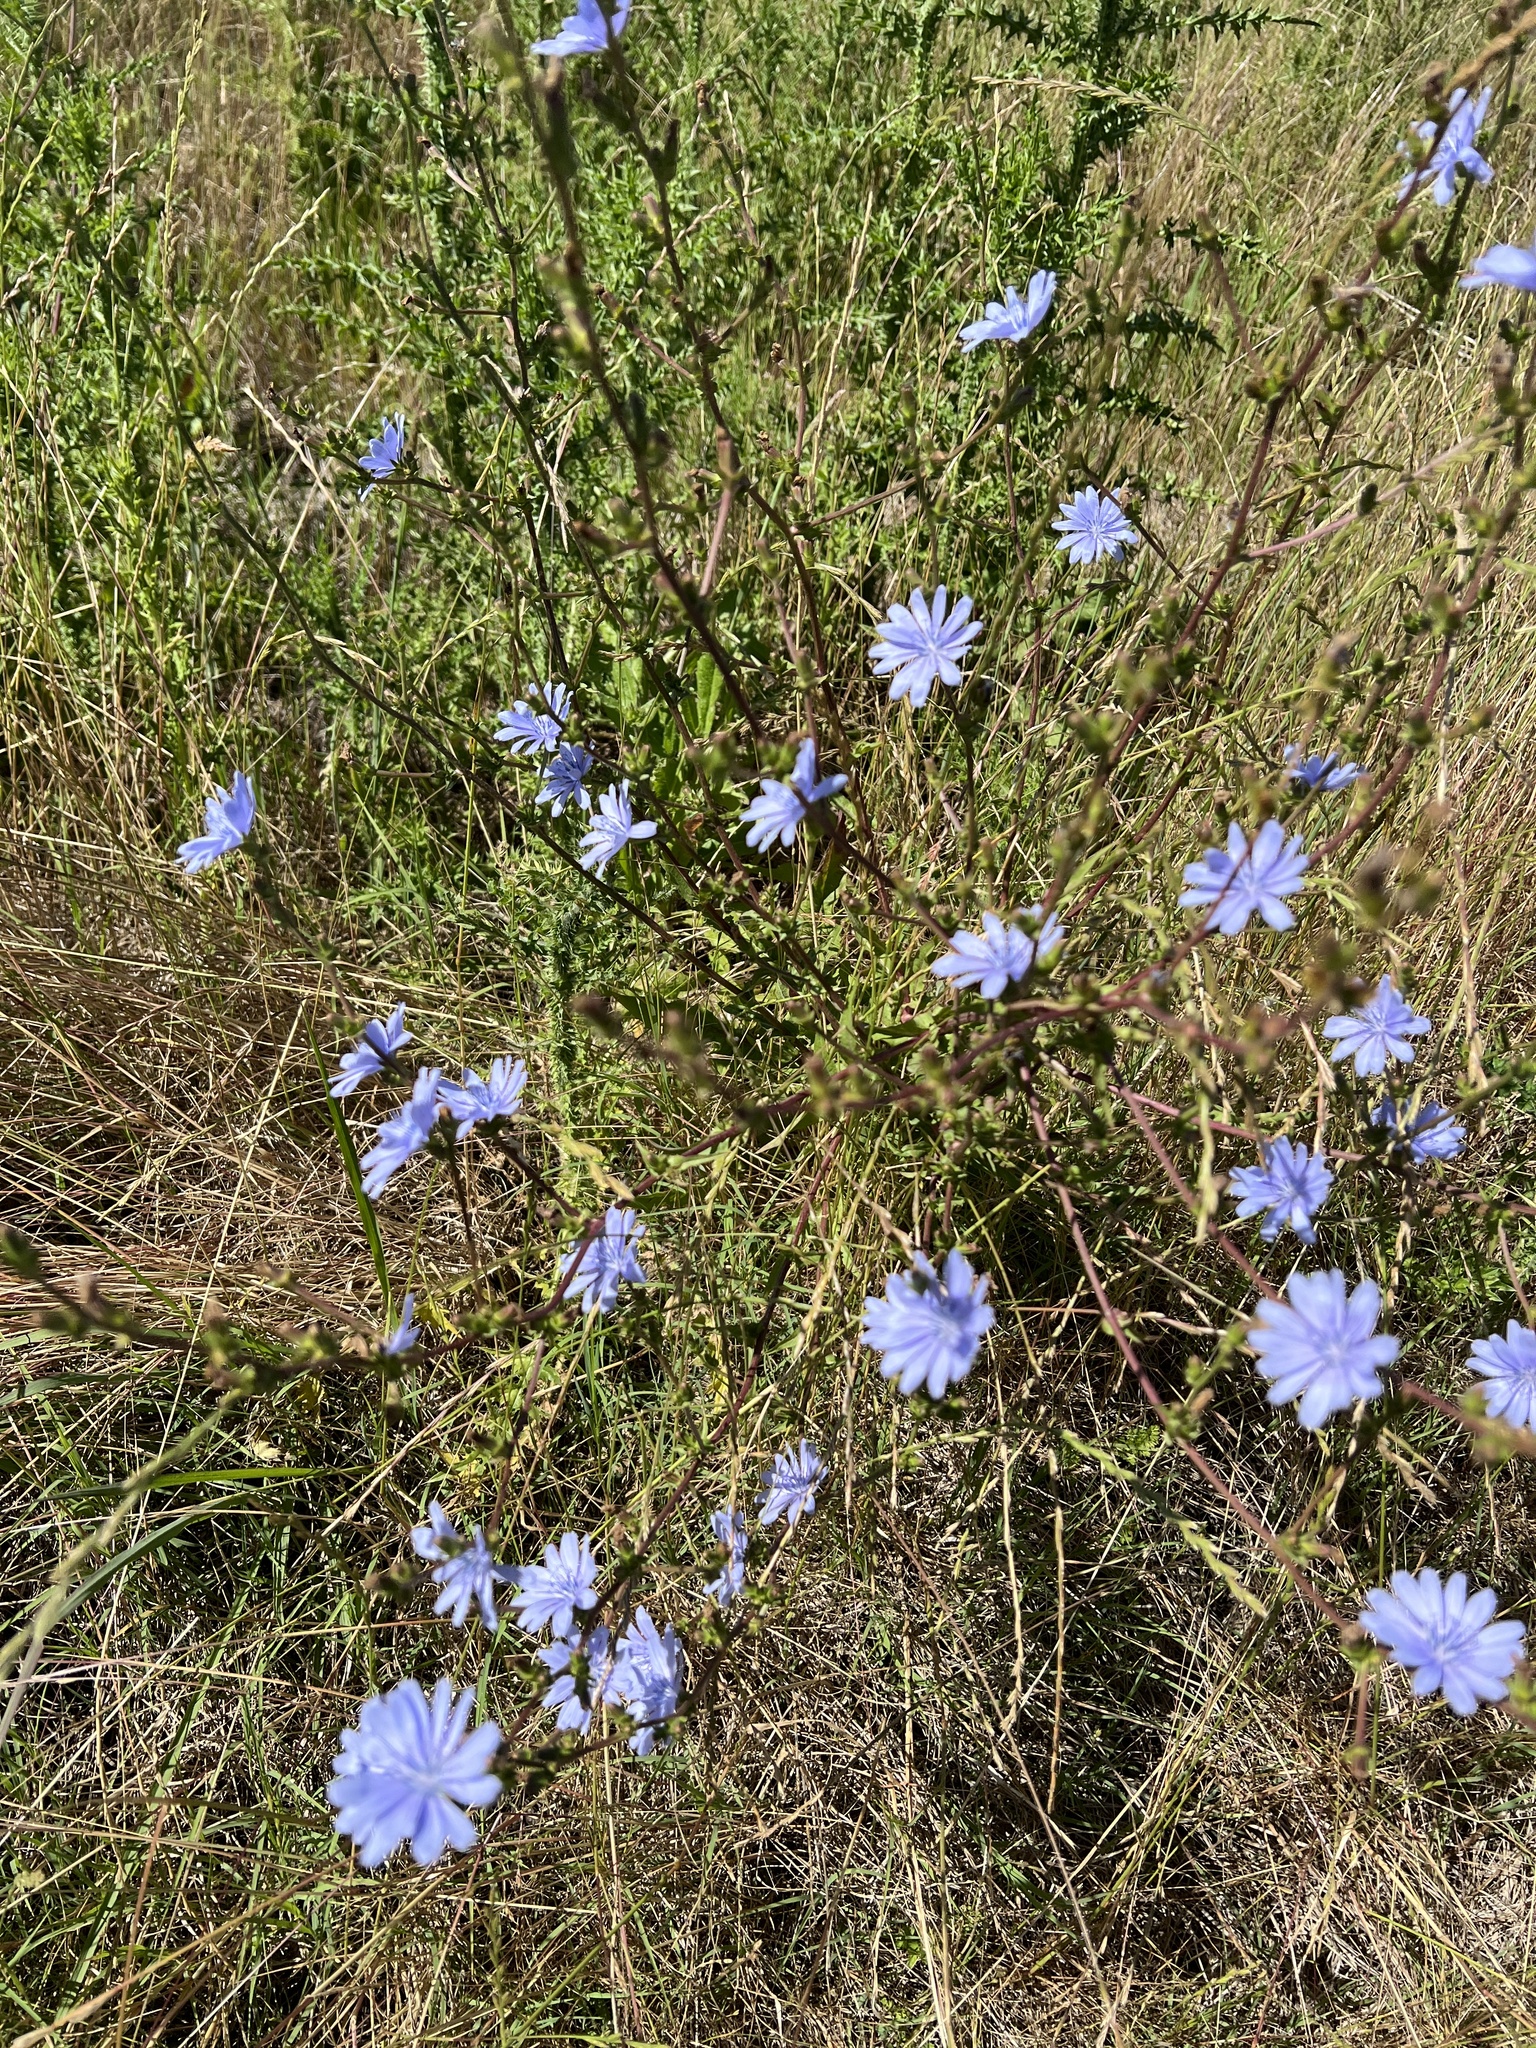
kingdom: Plantae
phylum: Tracheophyta
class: Magnoliopsida
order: Asterales
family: Asteraceae
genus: Cichorium
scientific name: Cichorium intybus
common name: Chicory
